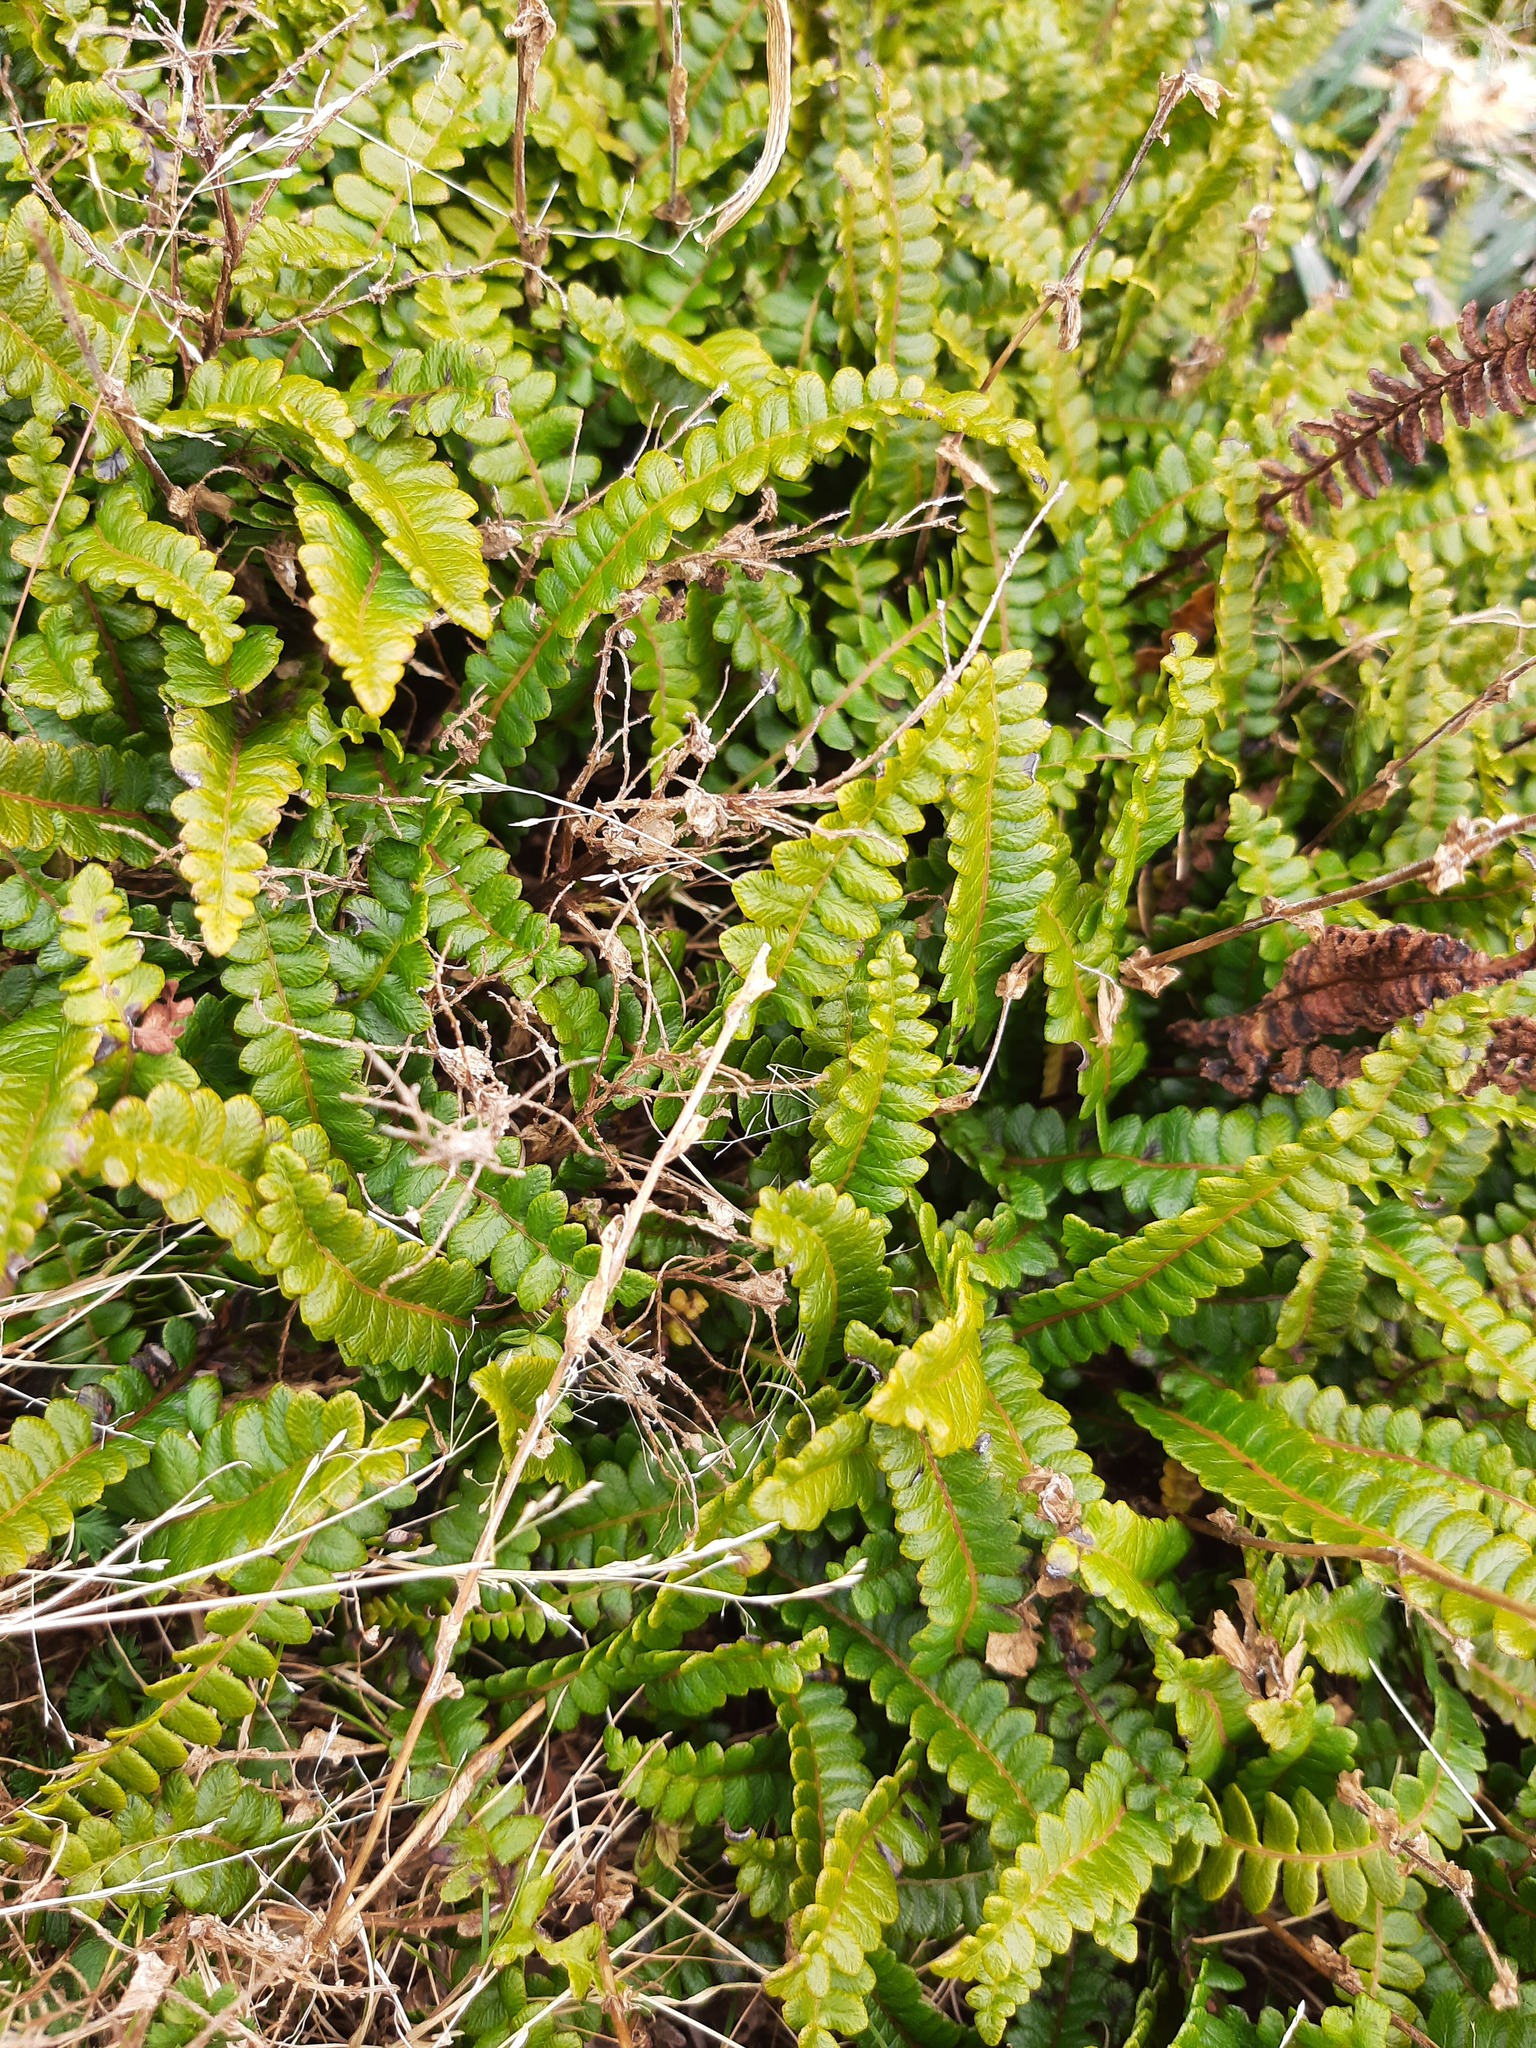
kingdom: Plantae
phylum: Tracheophyta
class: Polypodiopsida
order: Polypodiales
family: Blechnaceae
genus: Austroblechnum
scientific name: Austroblechnum penna-marina
